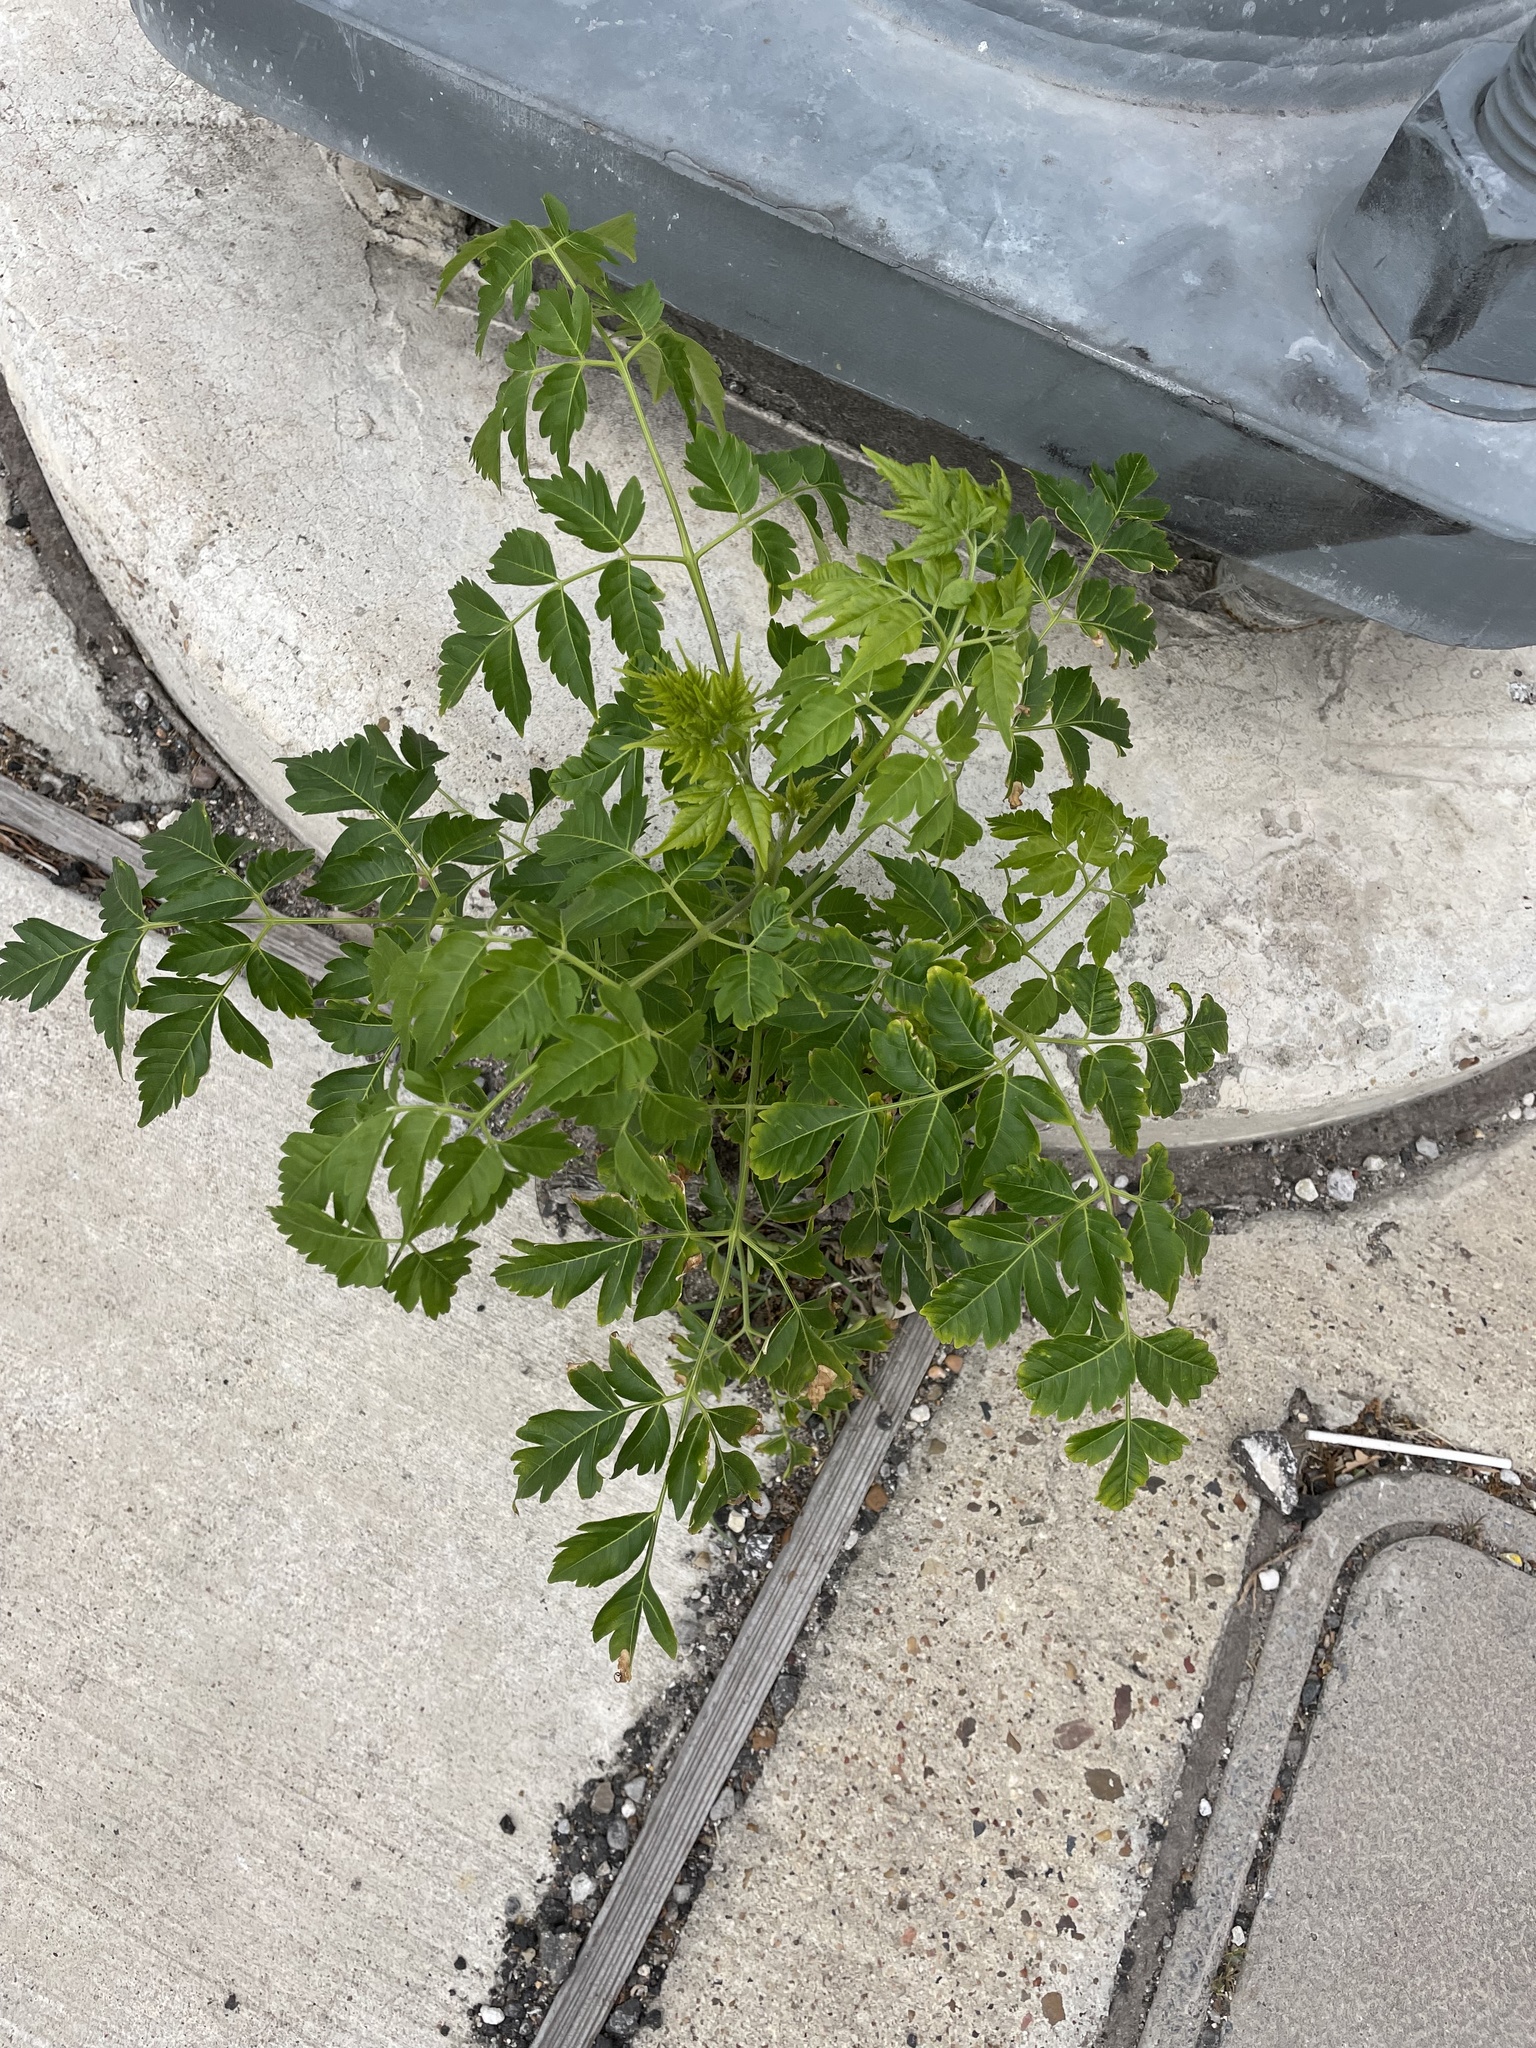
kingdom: Plantae
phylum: Tracheophyta
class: Magnoliopsida
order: Sapindales
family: Meliaceae
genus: Melia
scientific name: Melia azedarach
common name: Chinaberrytree
